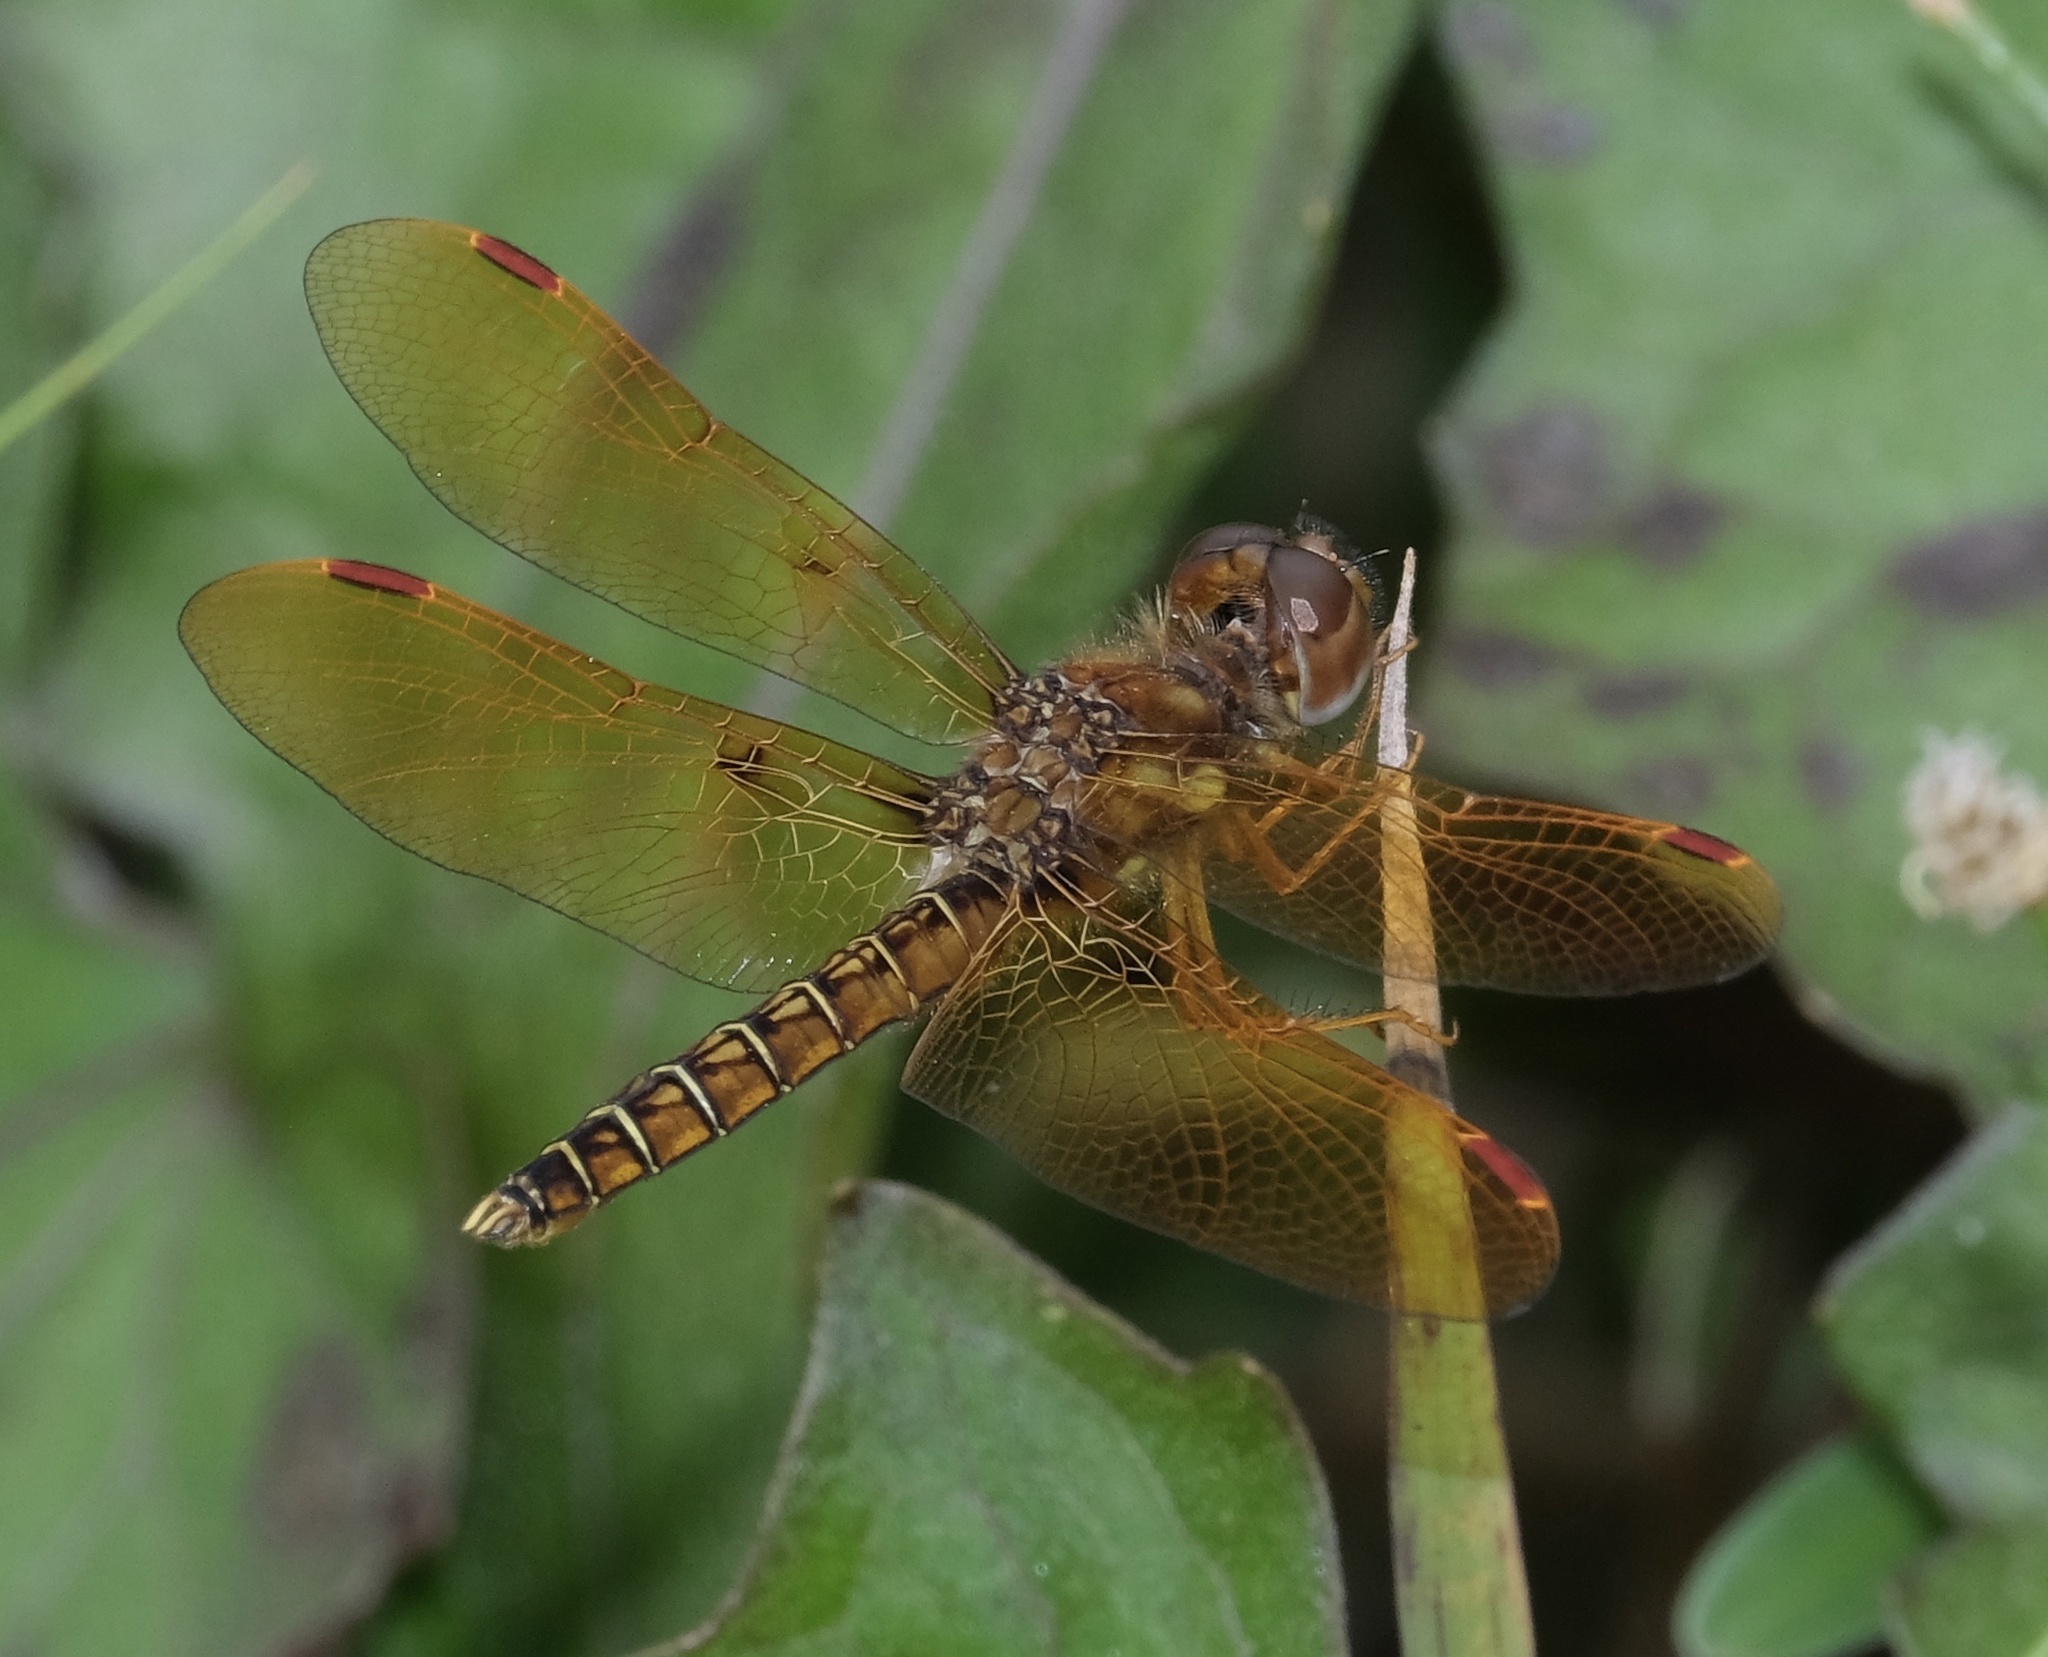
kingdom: Animalia
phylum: Arthropoda
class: Insecta
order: Odonata
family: Libellulidae
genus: Perithemis
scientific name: Perithemis tenera
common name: Eastern amberwing
